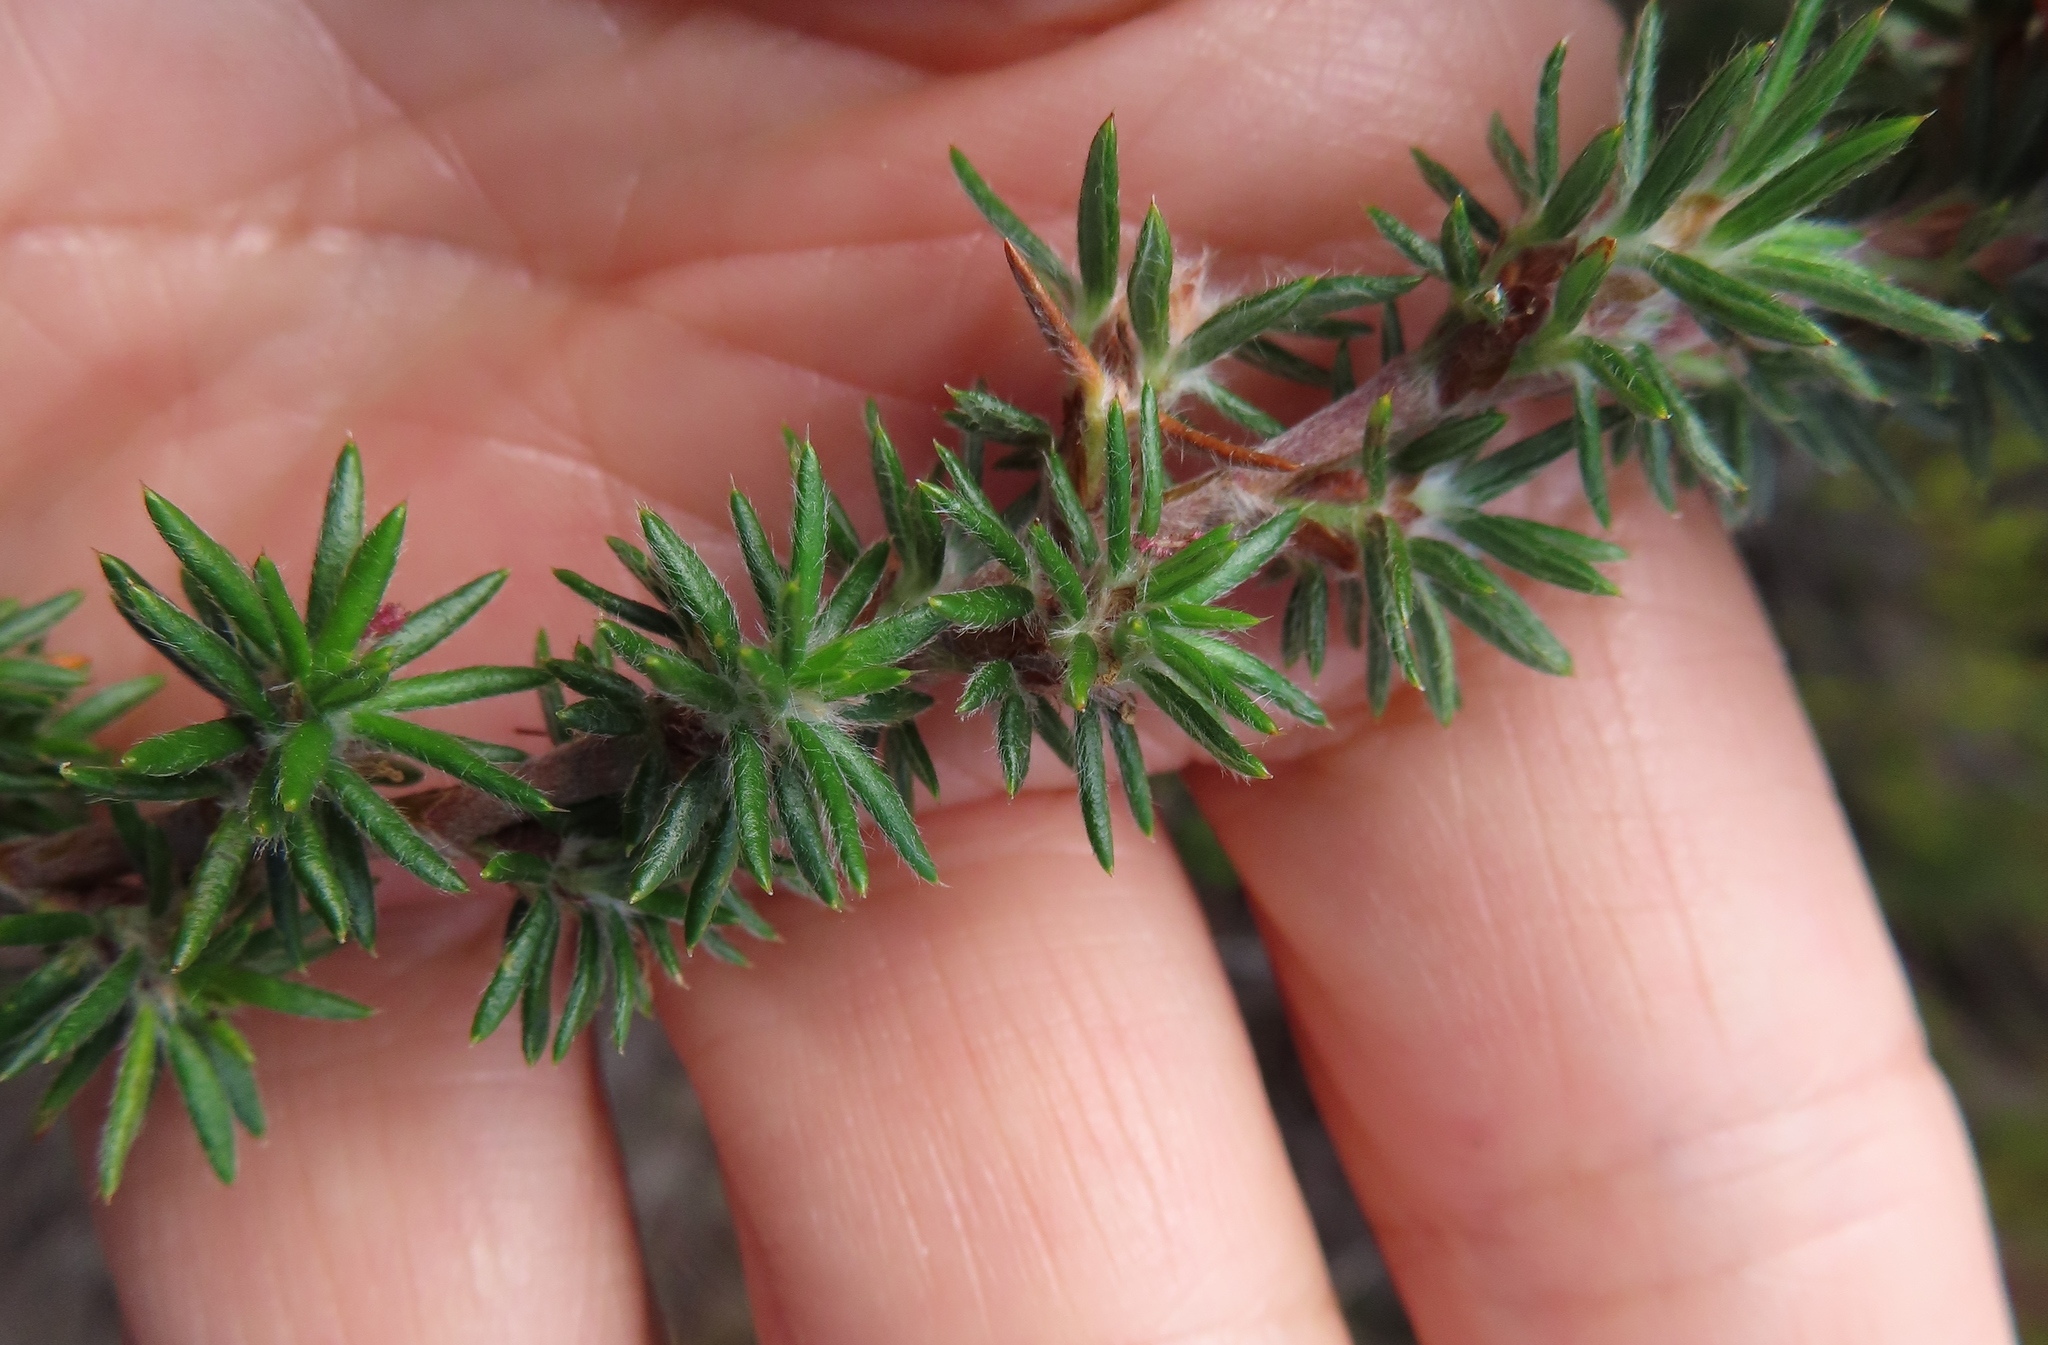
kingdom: Plantae
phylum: Tracheophyta
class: Magnoliopsida
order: Rosales
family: Rosaceae
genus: Cliffortia
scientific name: Cliffortia stricta
